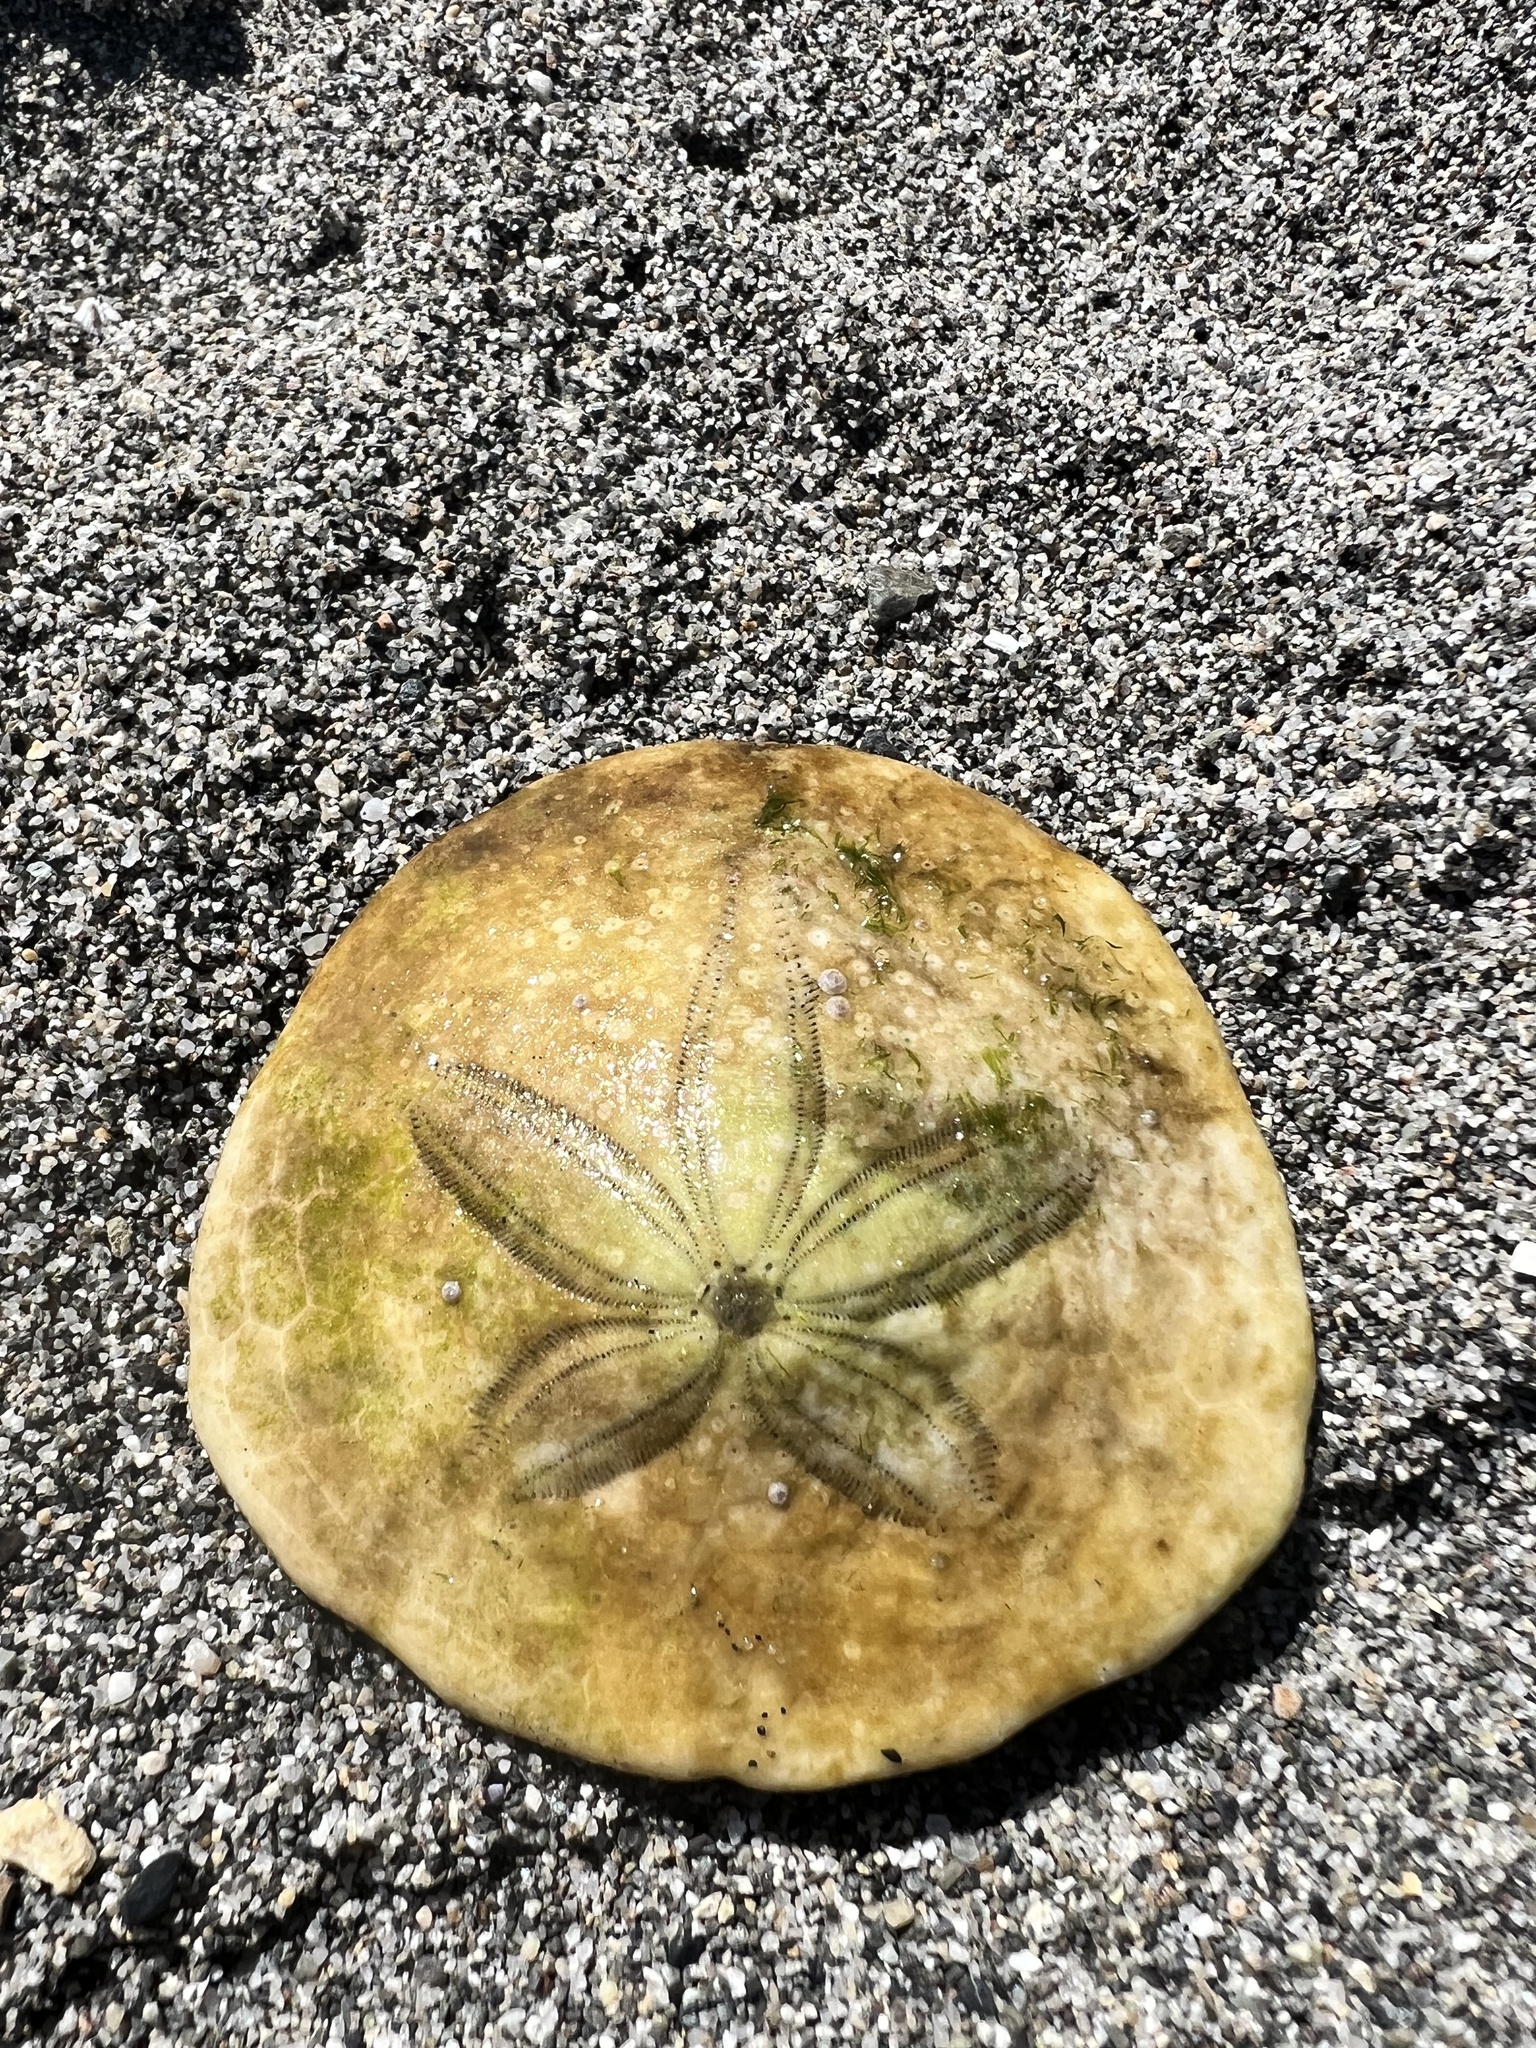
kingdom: Animalia
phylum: Echinodermata
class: Echinoidea
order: Echinolampadacea
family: Dendrasteridae
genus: Dendraster
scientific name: Dendraster excentricus
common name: Eccentric sand dollar sea urchin
